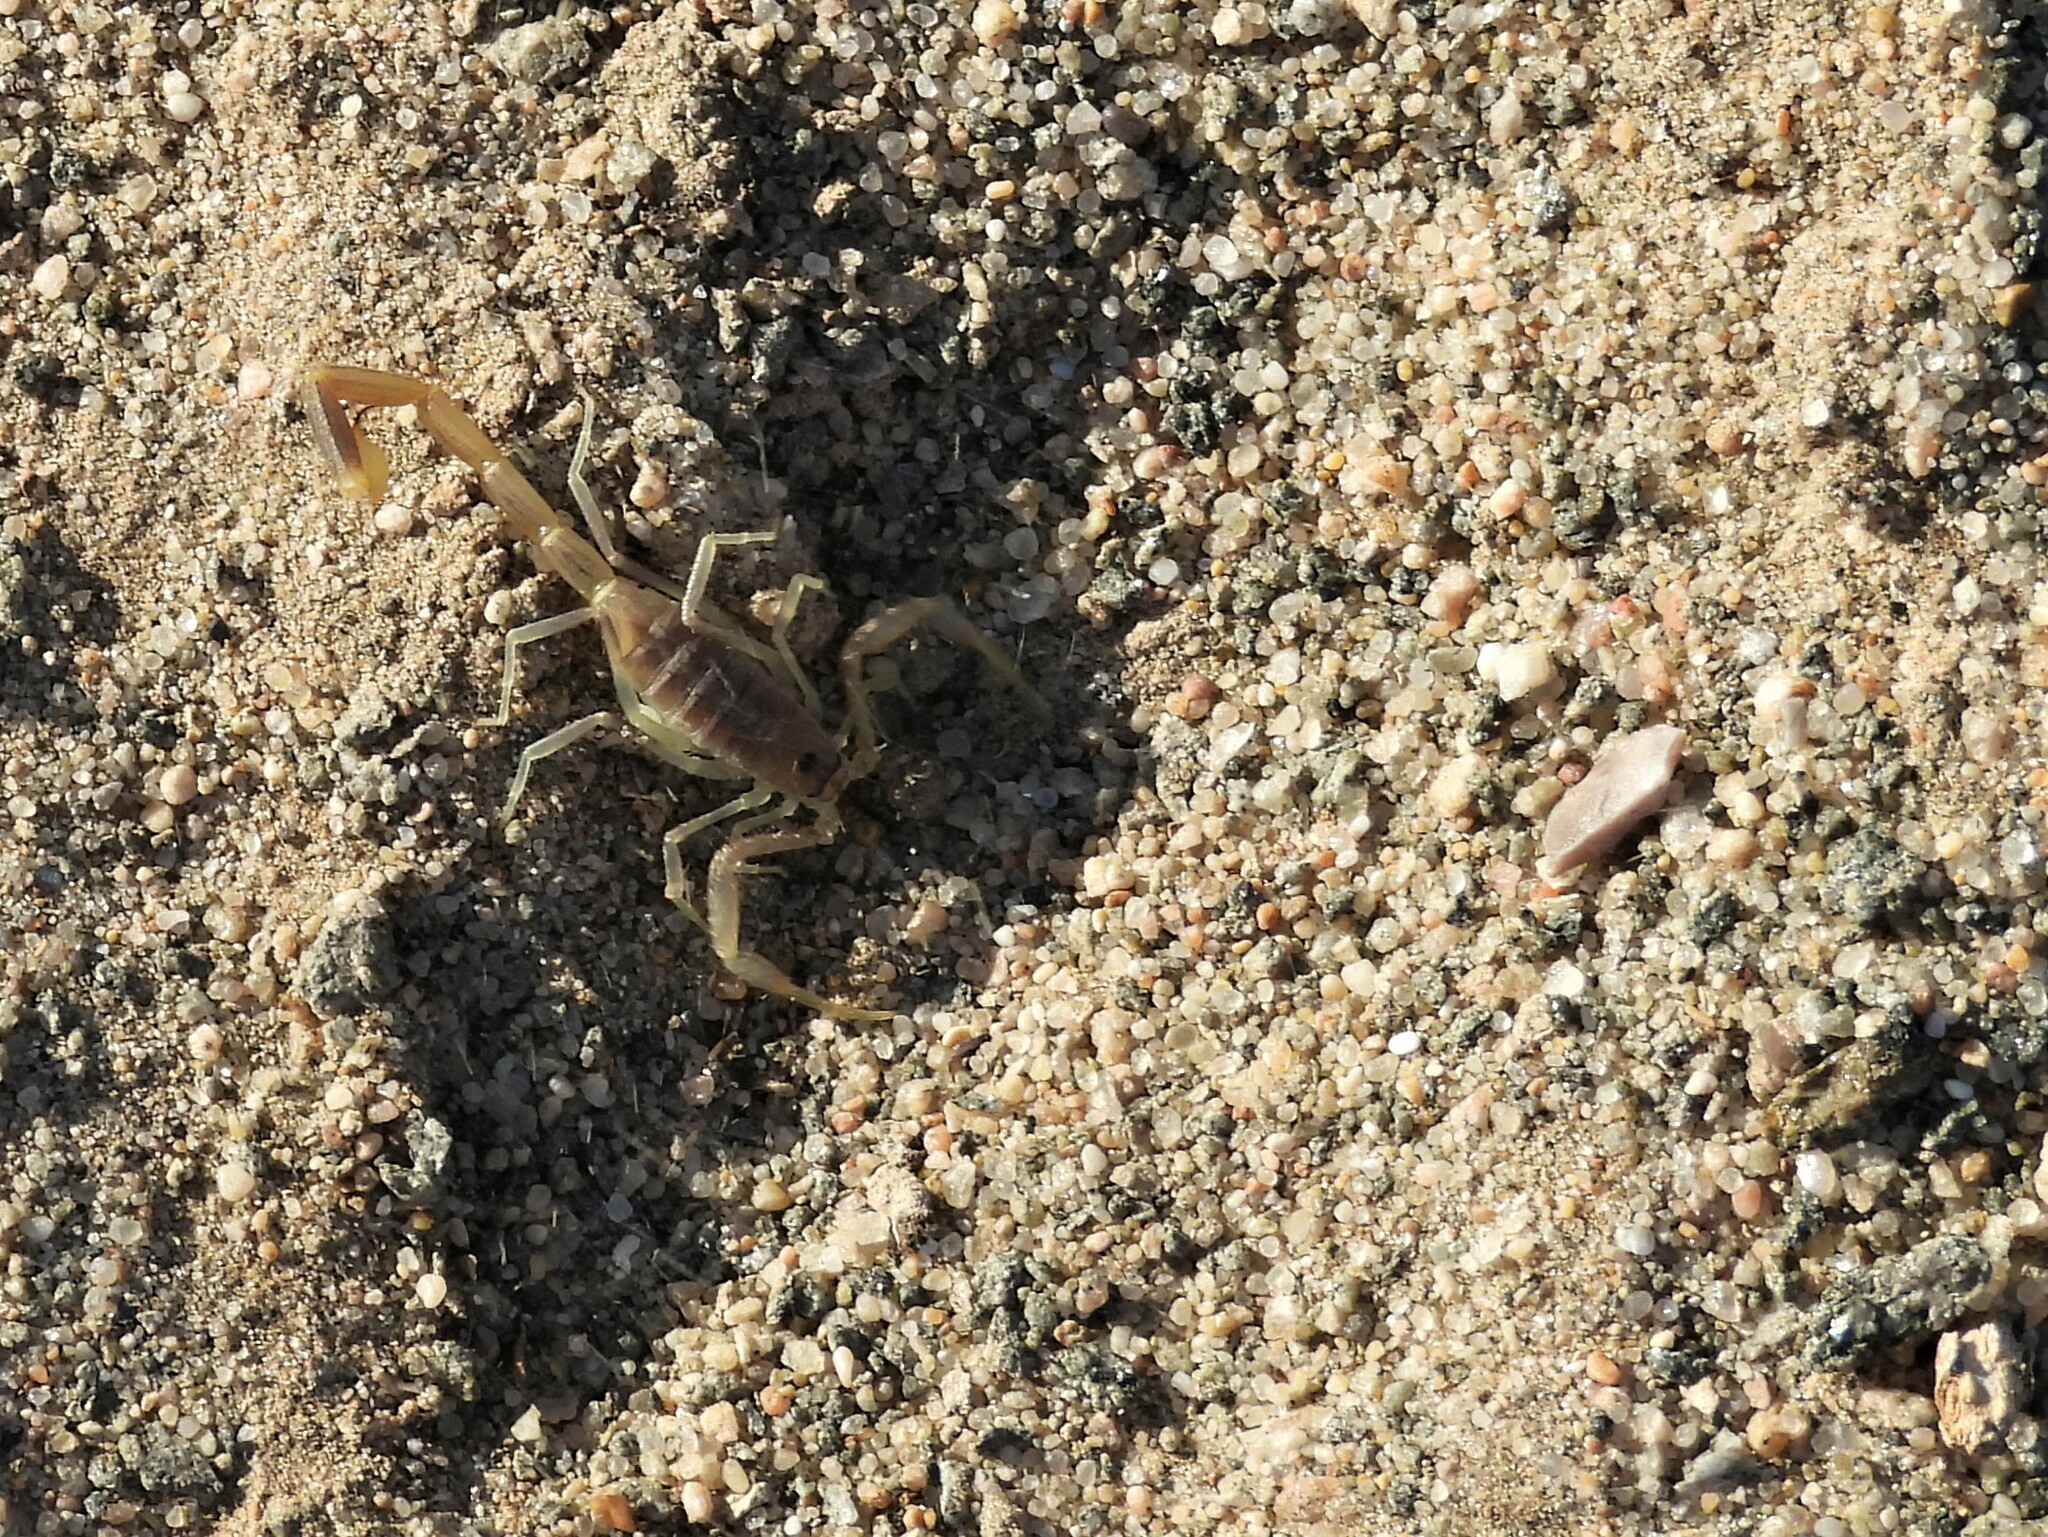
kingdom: Animalia
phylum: Arthropoda
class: Arachnida
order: Scorpiones
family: Buthidae
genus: Uroplectes
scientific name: Uroplectes longimanus
